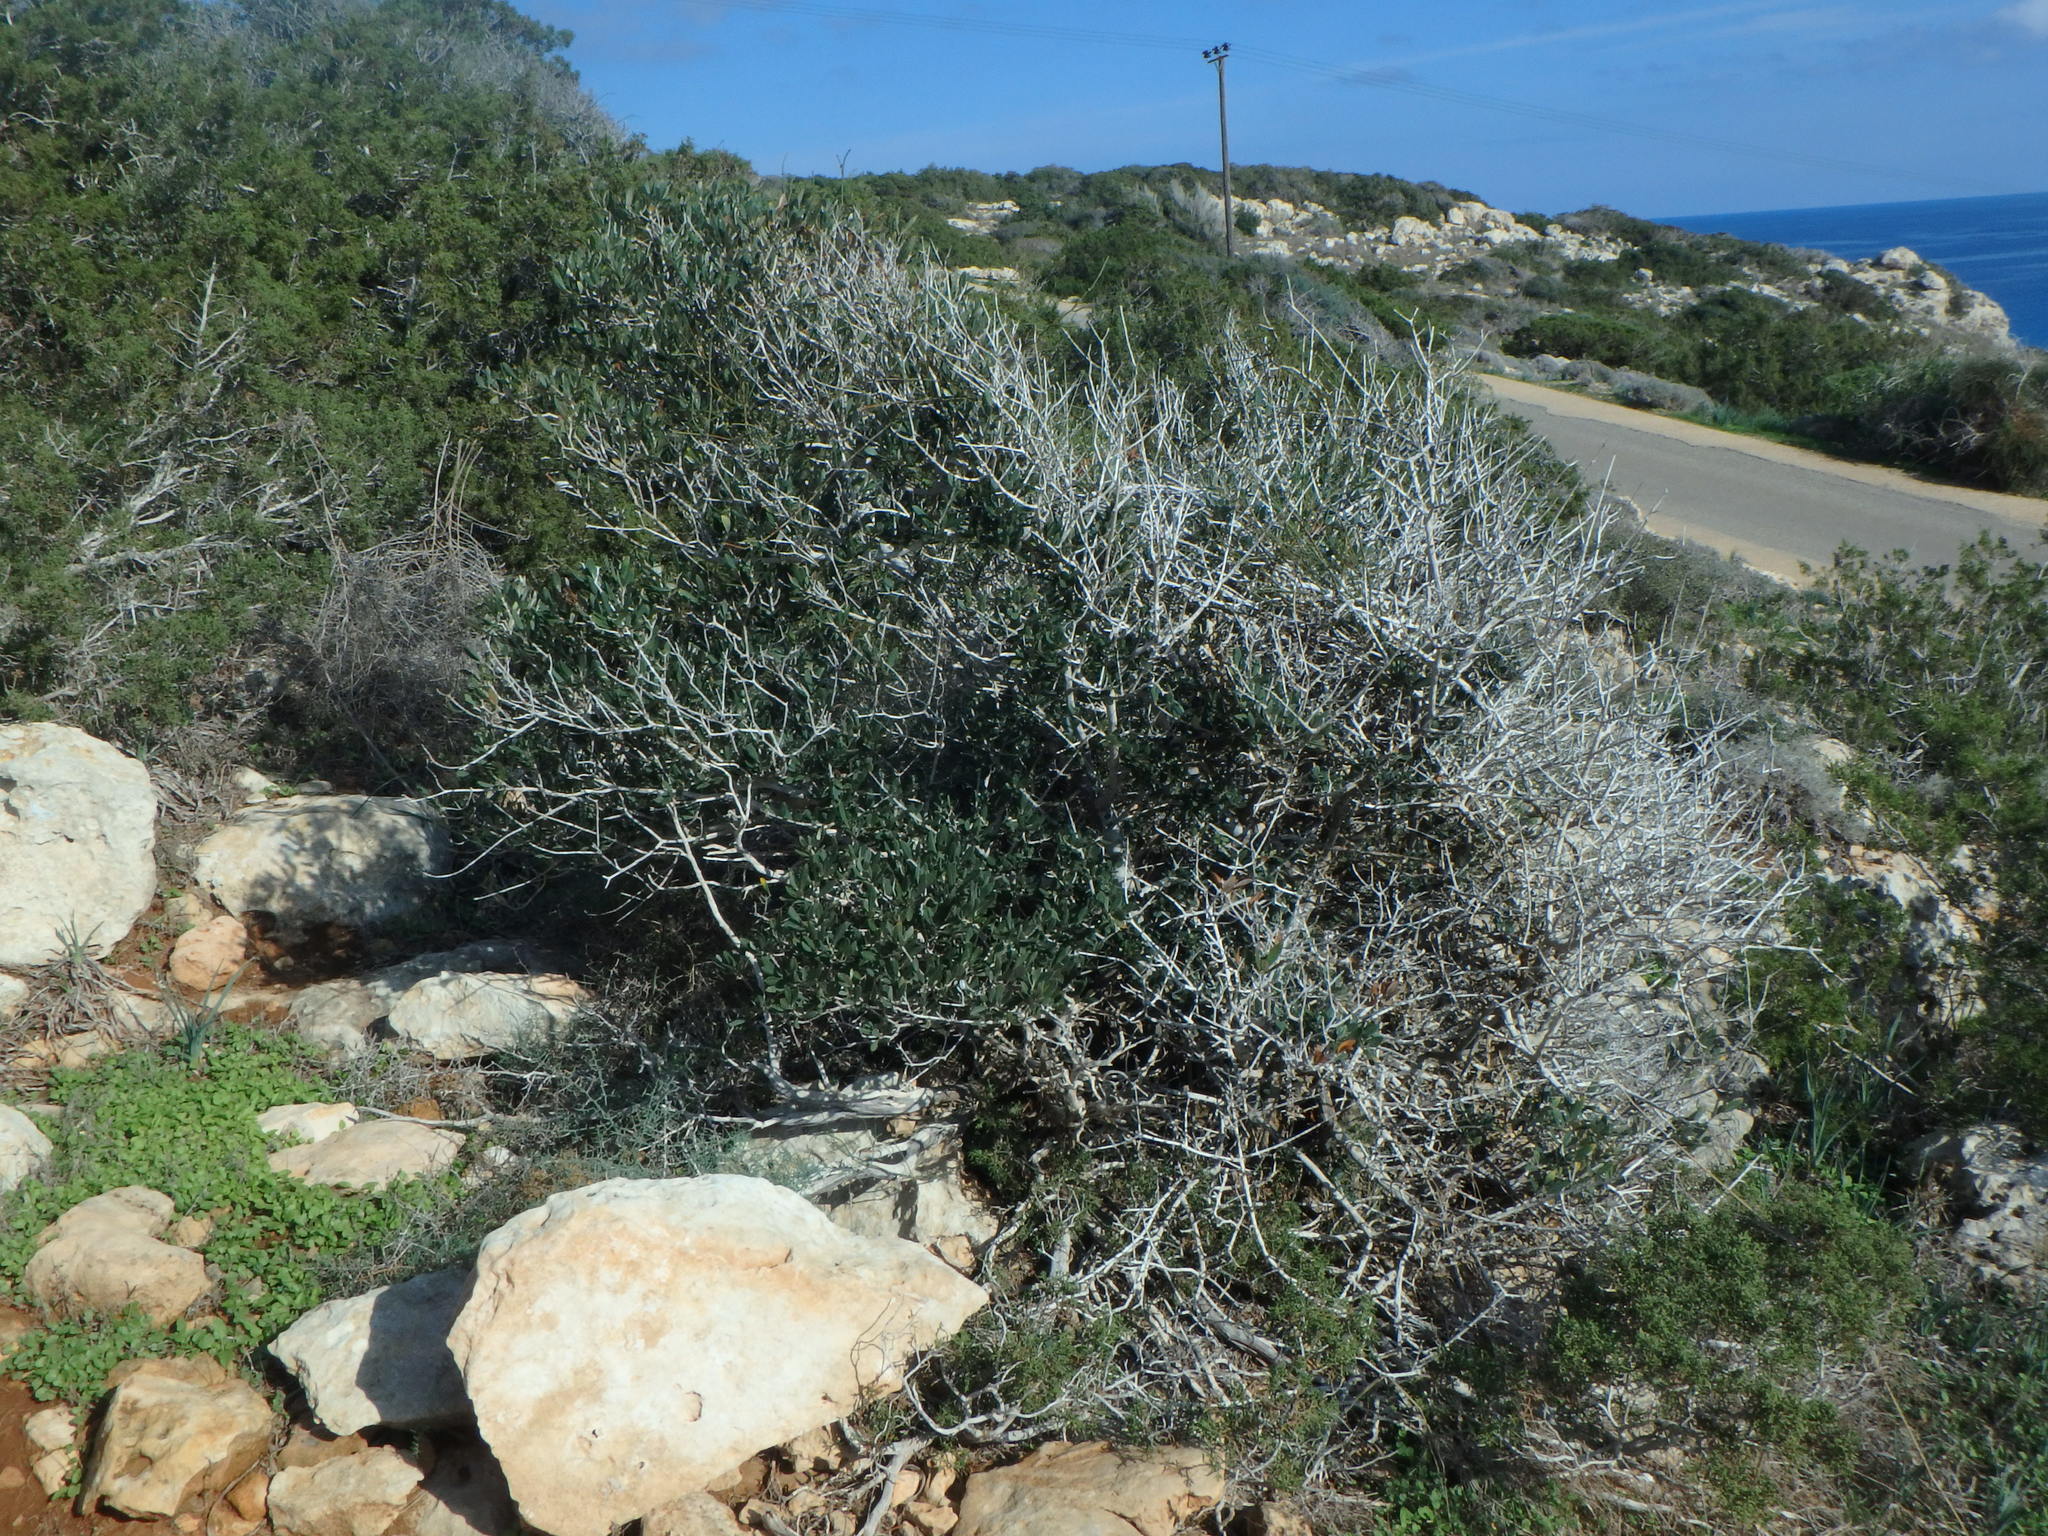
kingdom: Plantae
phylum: Tracheophyta
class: Magnoliopsida
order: Lamiales
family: Oleaceae
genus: Olea
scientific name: Olea europaea
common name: Olive
